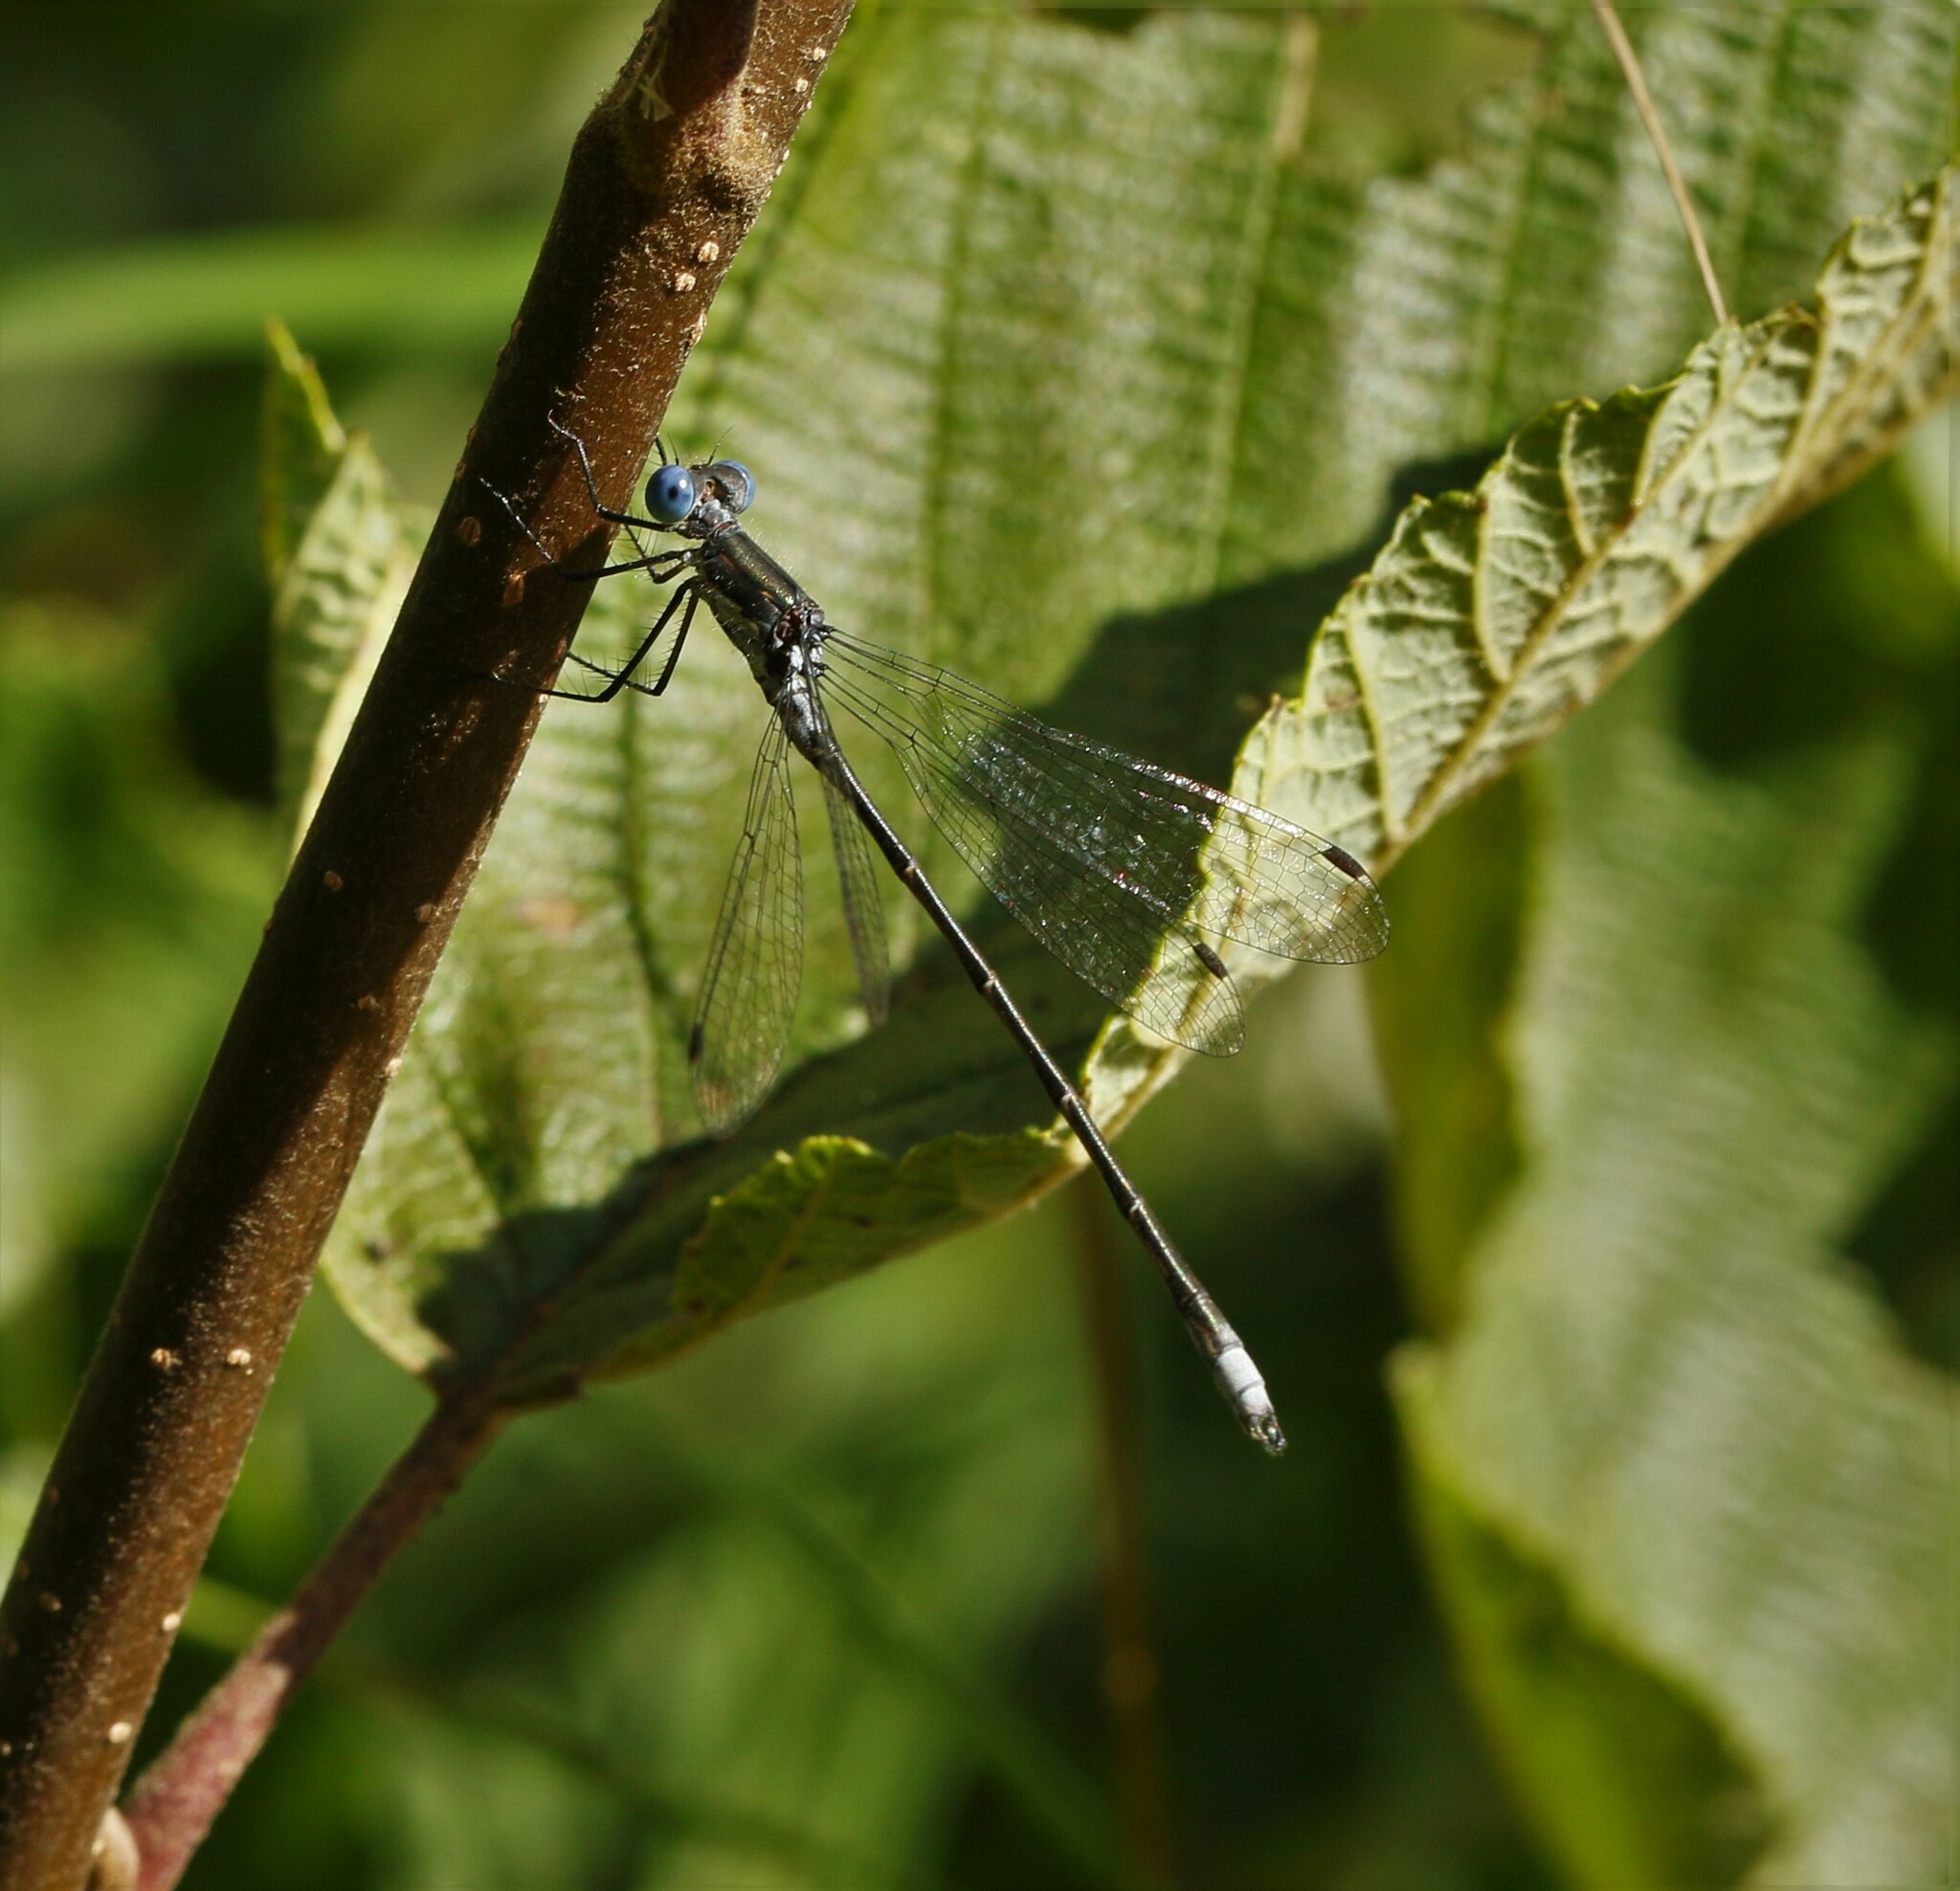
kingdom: Animalia
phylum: Arthropoda
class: Insecta
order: Odonata
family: Lestidae
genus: Lestes
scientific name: Lestes congener
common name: Spotted spreadwing
